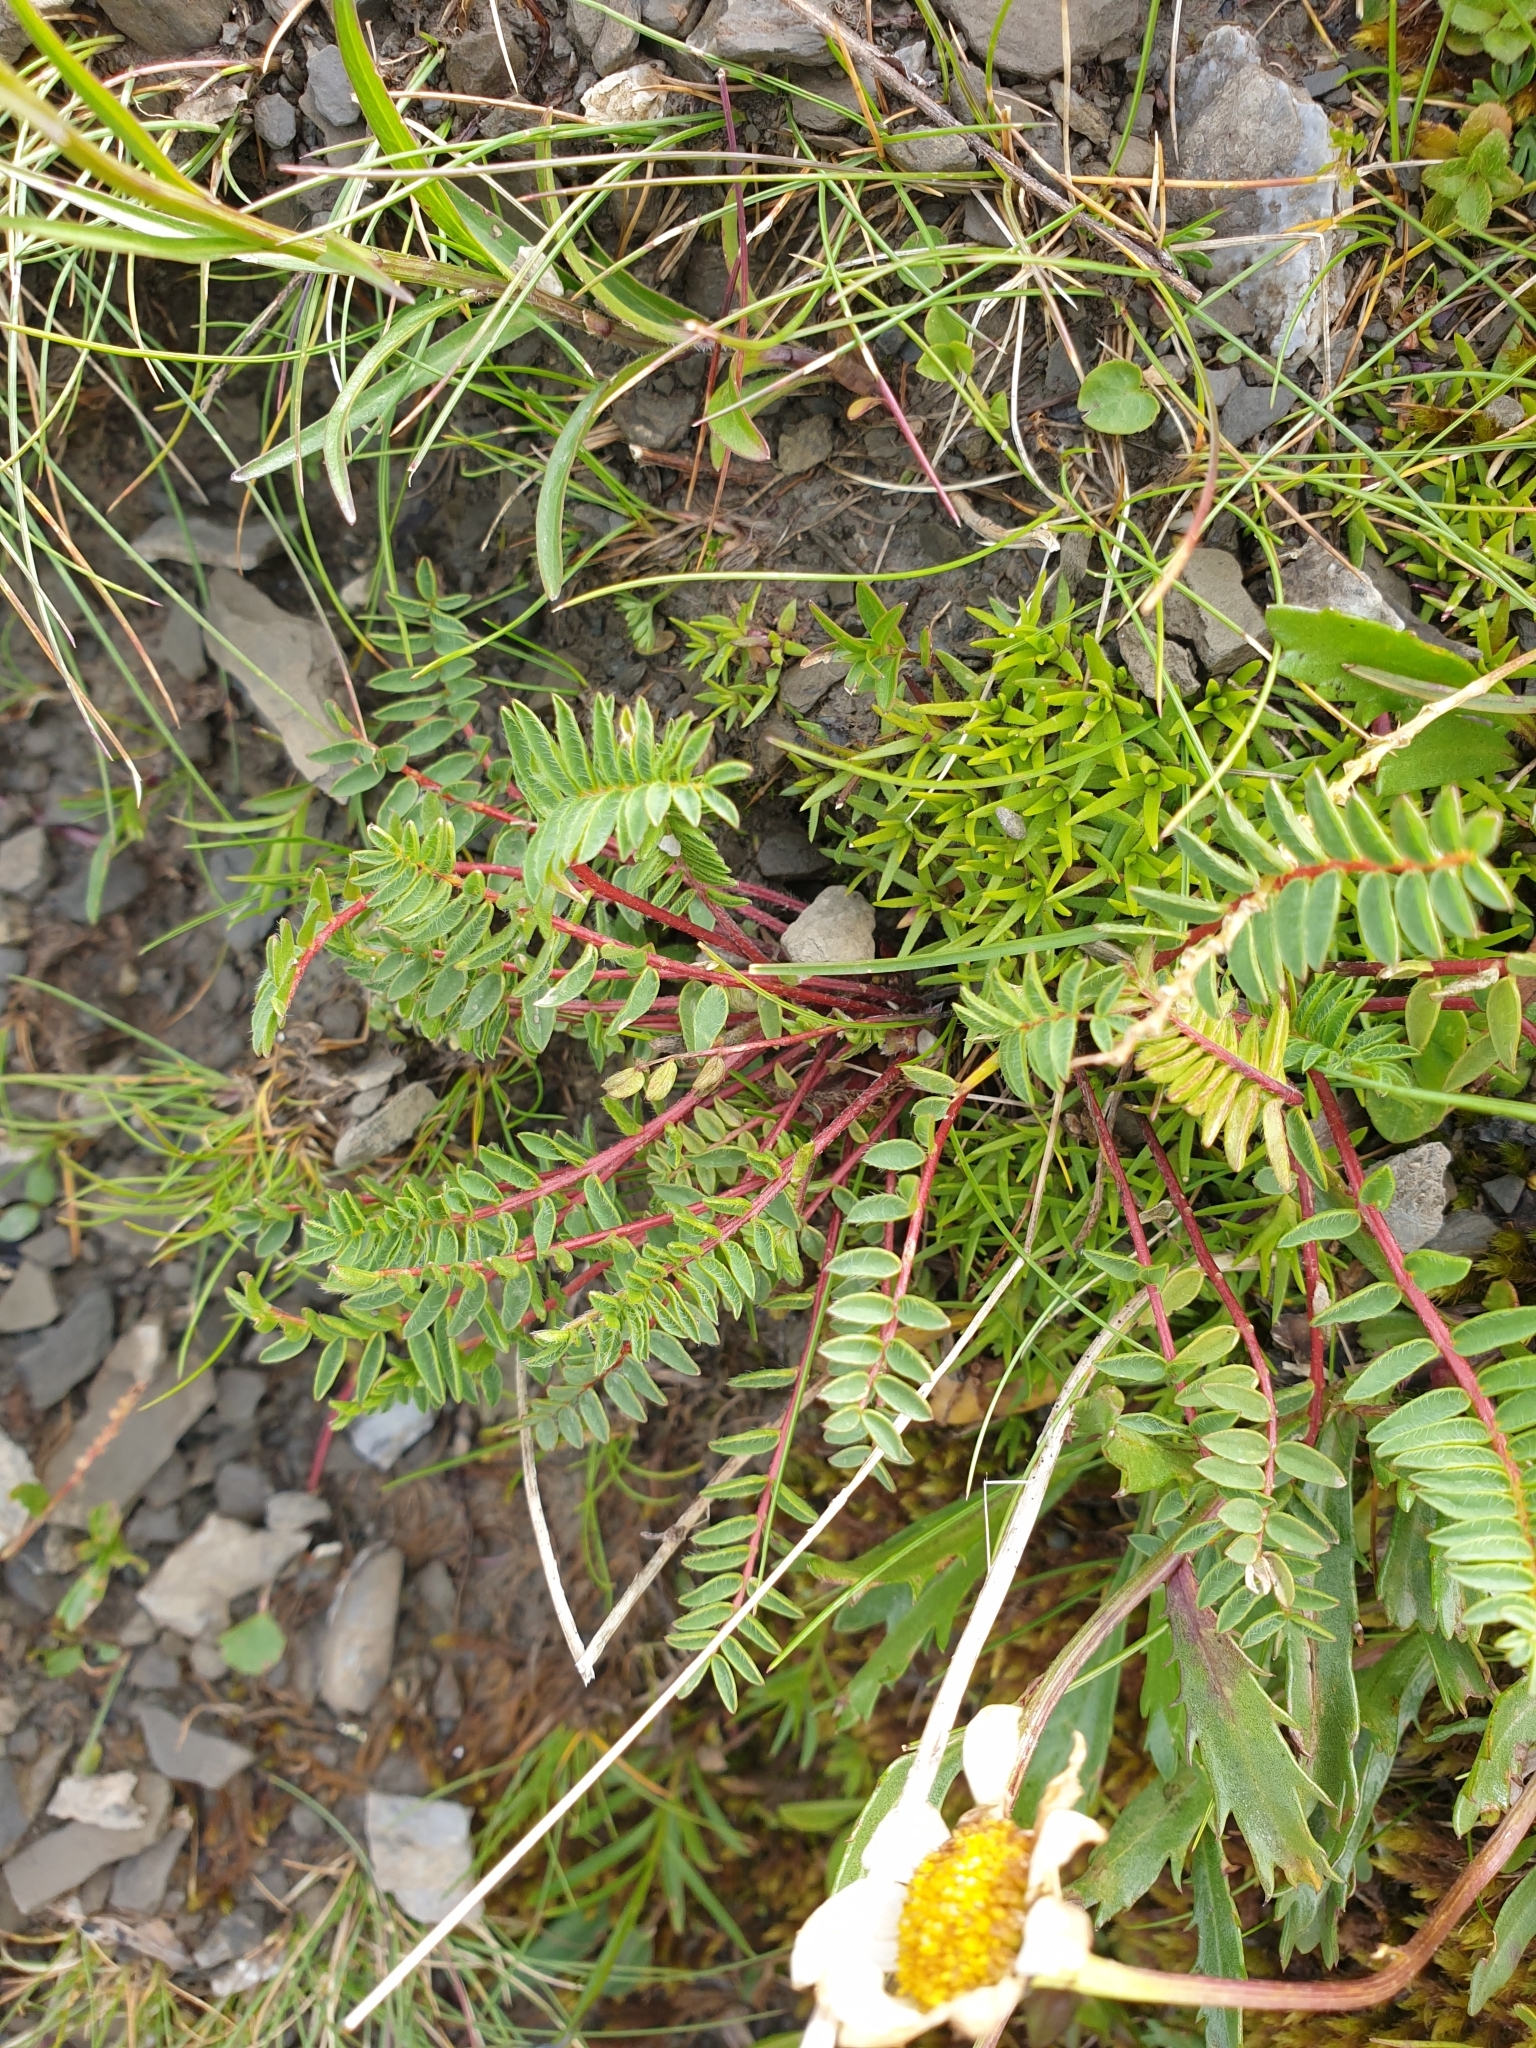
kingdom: Plantae
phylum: Tracheophyta
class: Magnoliopsida
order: Fabales
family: Fabaceae
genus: Oxytropis
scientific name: Oxytropis montana
